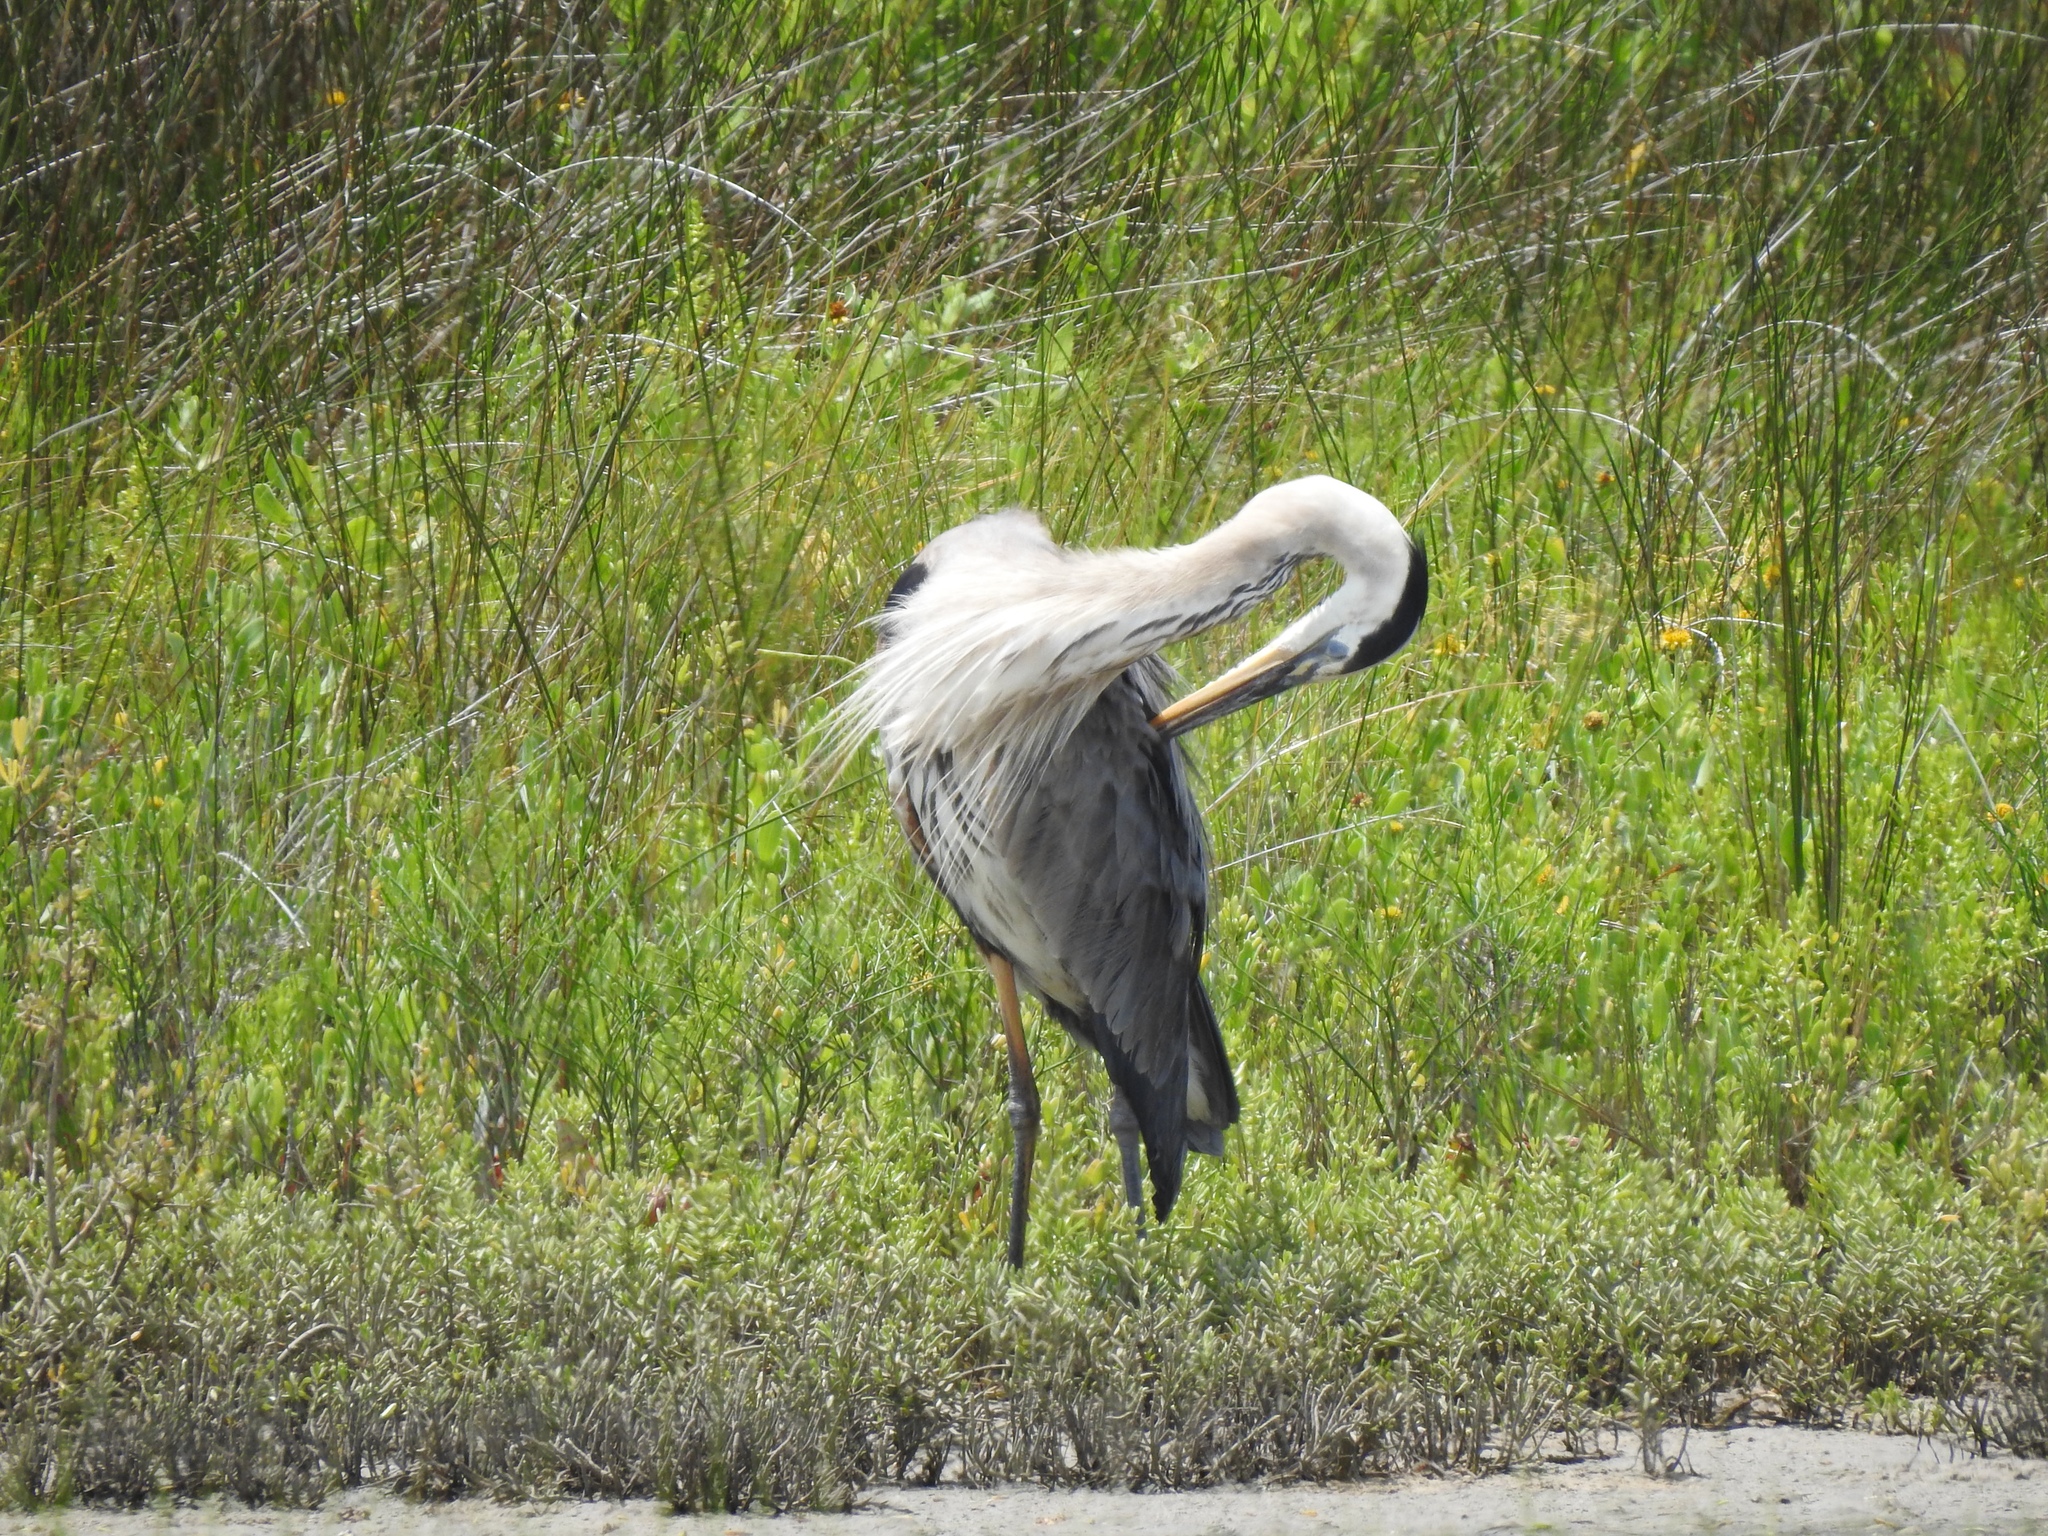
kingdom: Animalia
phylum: Chordata
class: Aves
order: Pelecaniformes
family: Ardeidae
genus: Ardea
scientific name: Ardea herodias
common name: Great blue heron
